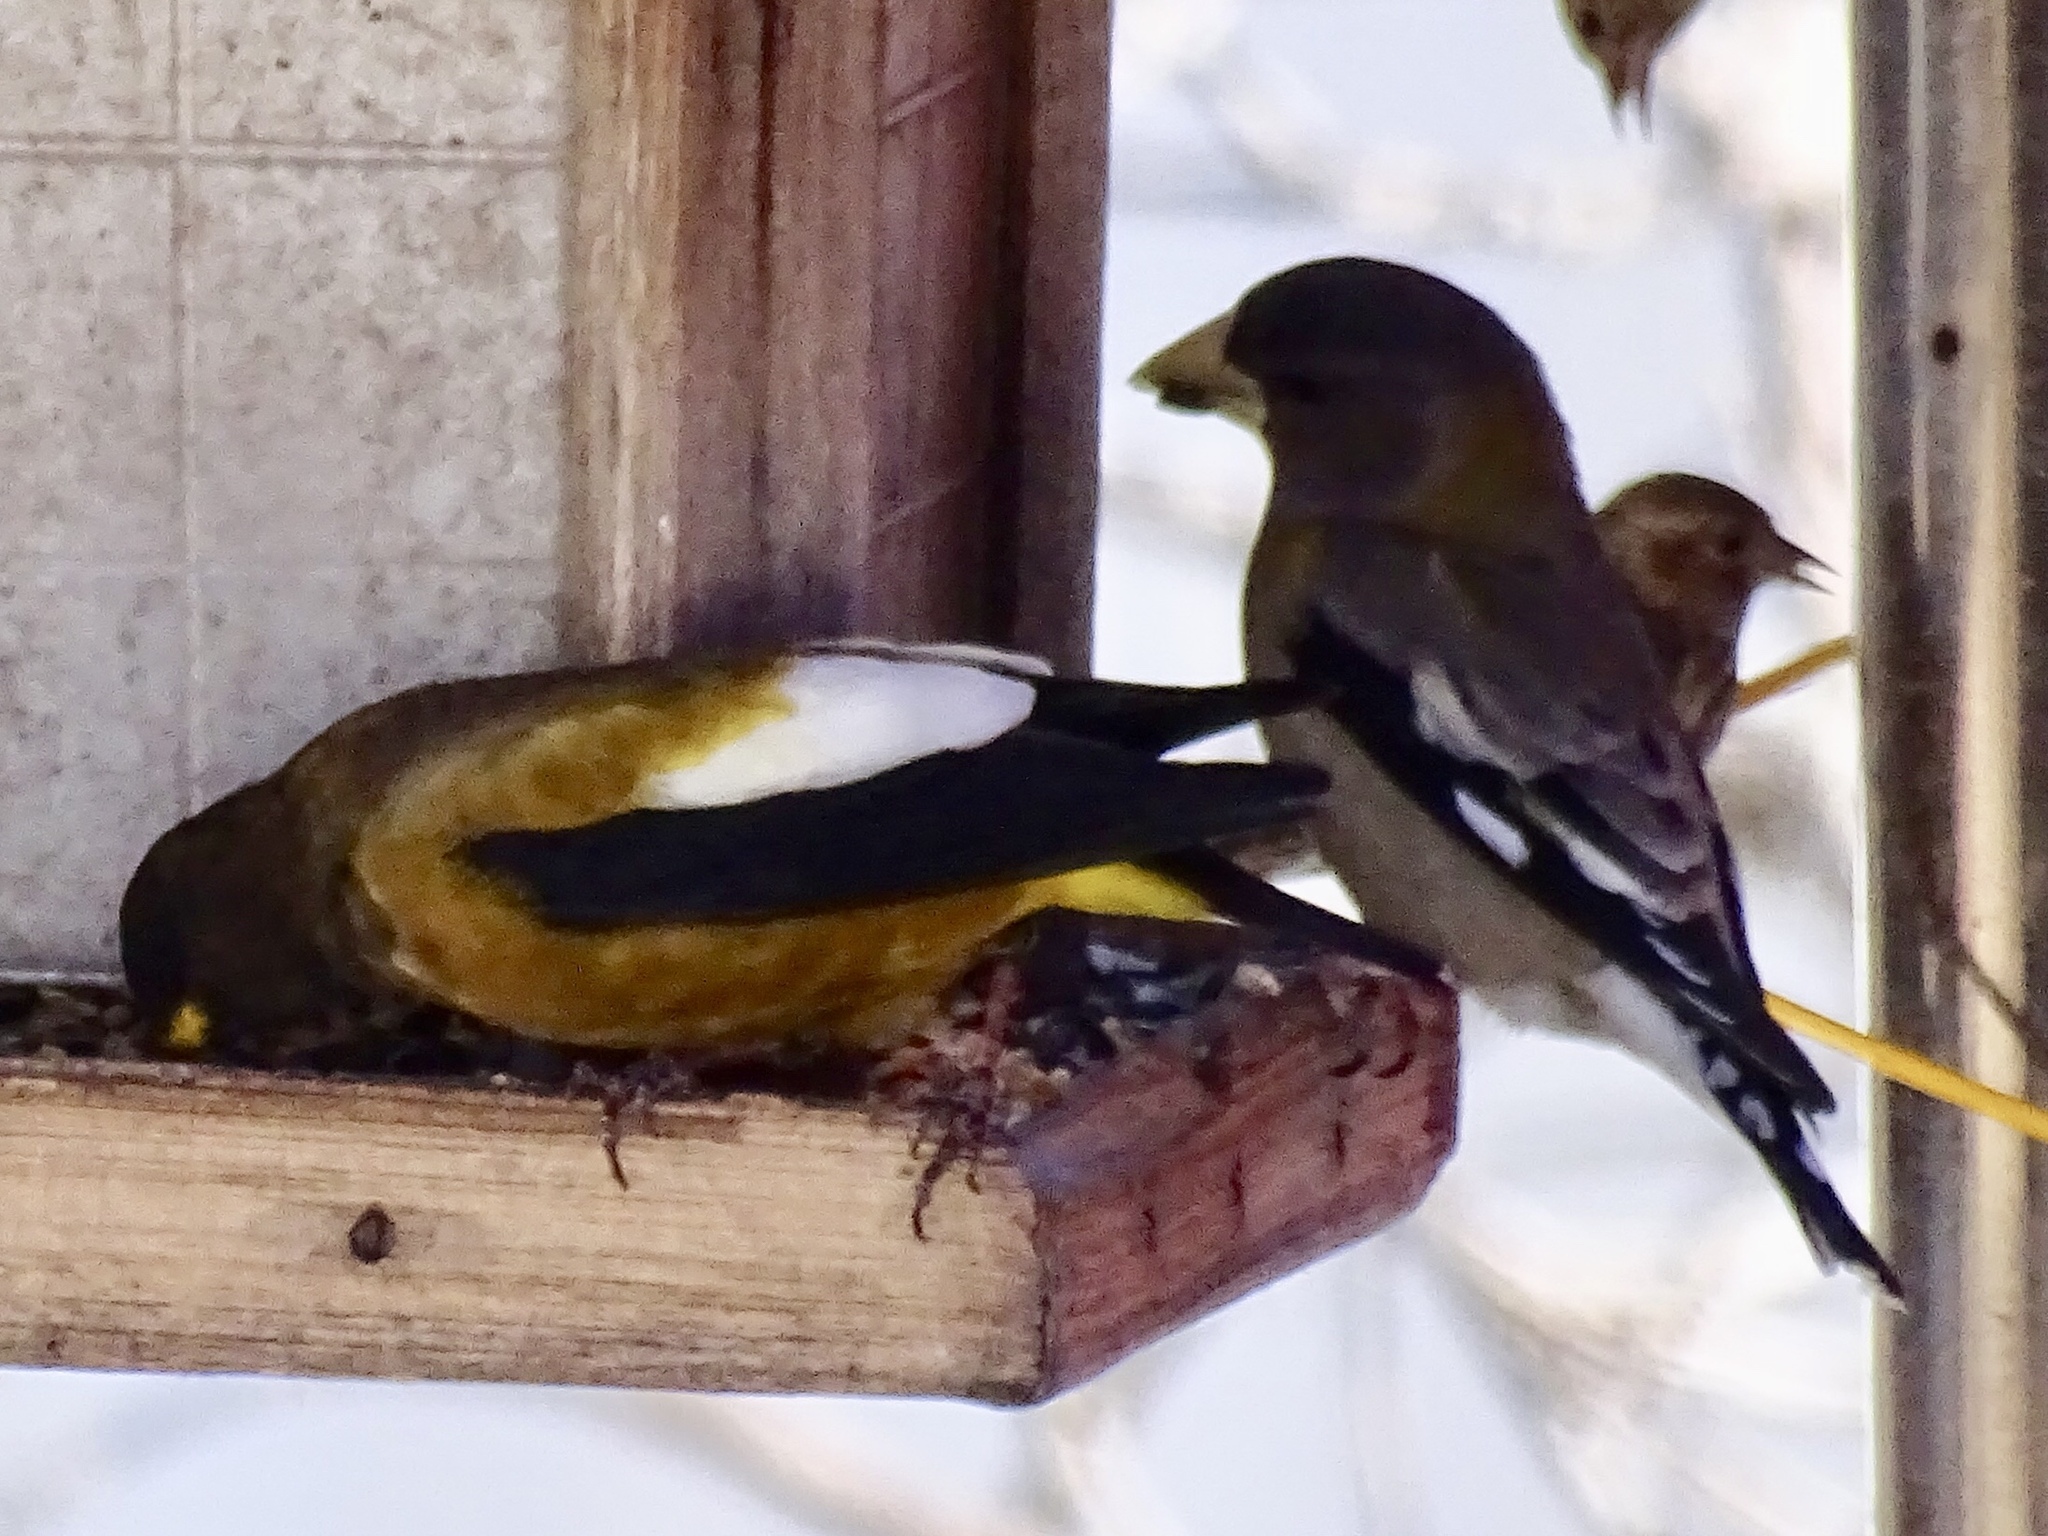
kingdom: Animalia
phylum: Chordata
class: Aves
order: Passeriformes
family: Fringillidae
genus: Hesperiphona
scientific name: Hesperiphona vespertina
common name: Evening grosbeak
